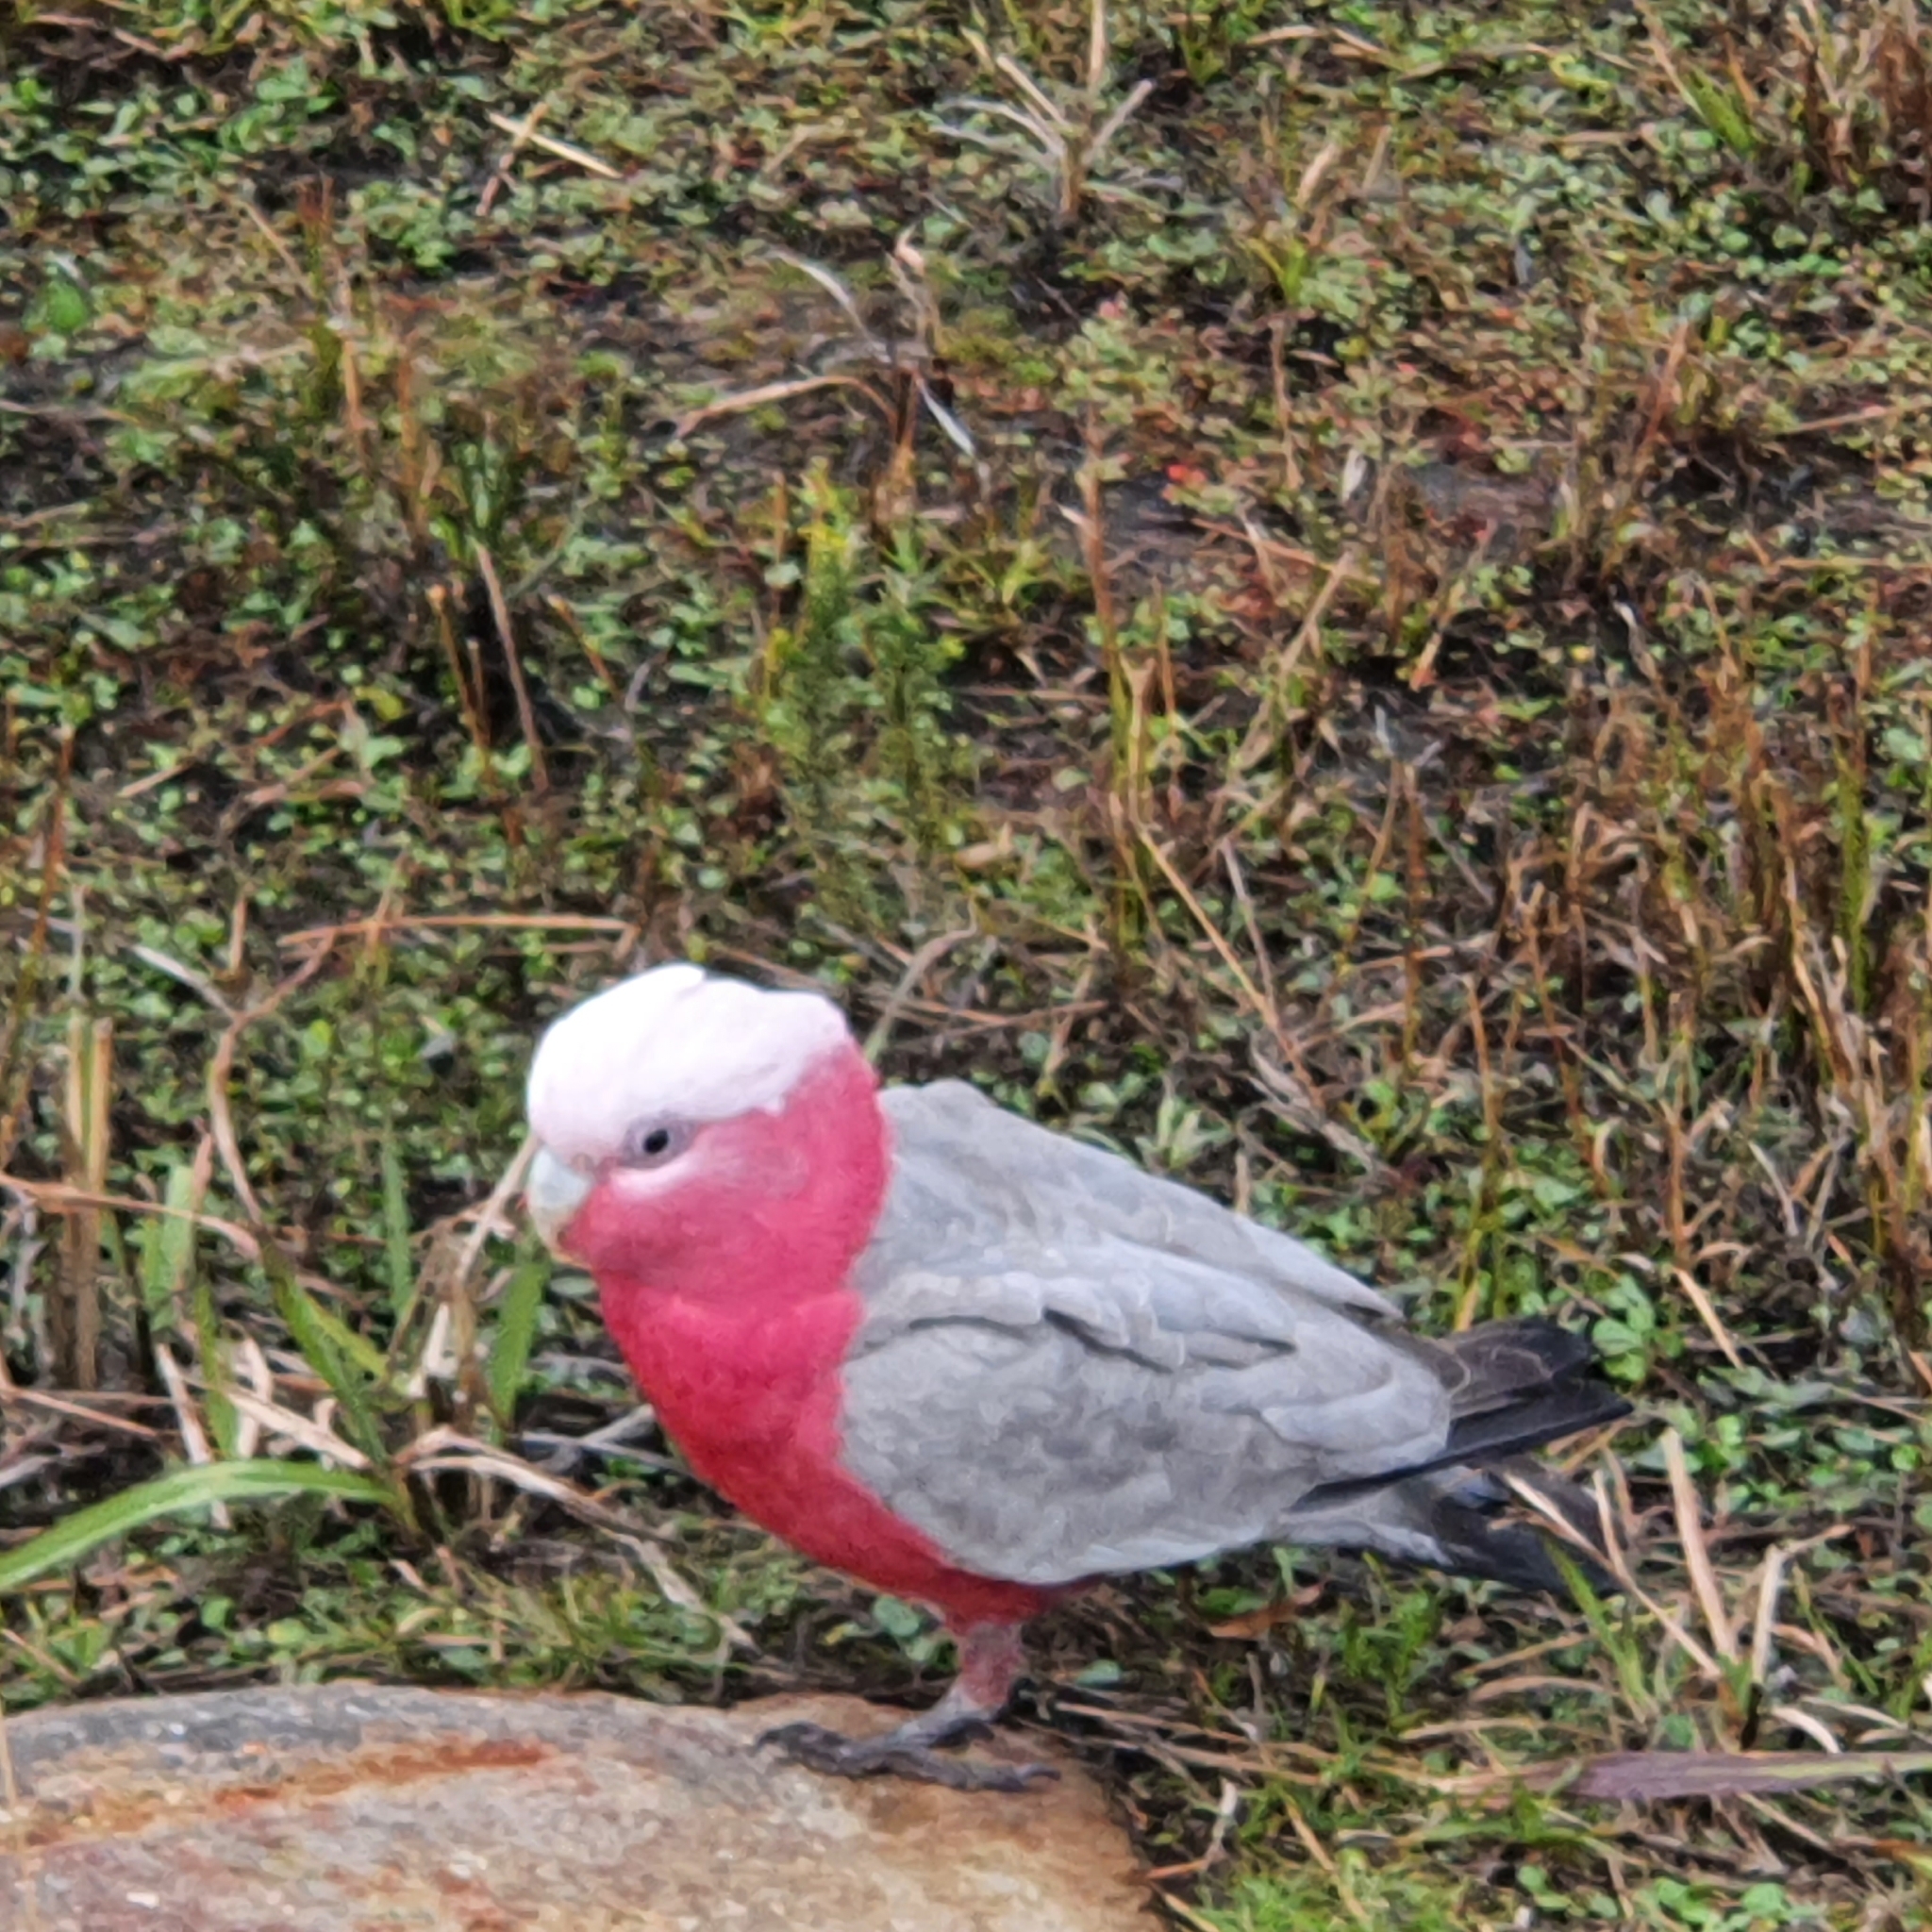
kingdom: Animalia
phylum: Chordata
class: Aves
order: Psittaciformes
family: Psittacidae
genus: Eolophus
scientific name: Eolophus roseicapilla
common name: Galah
